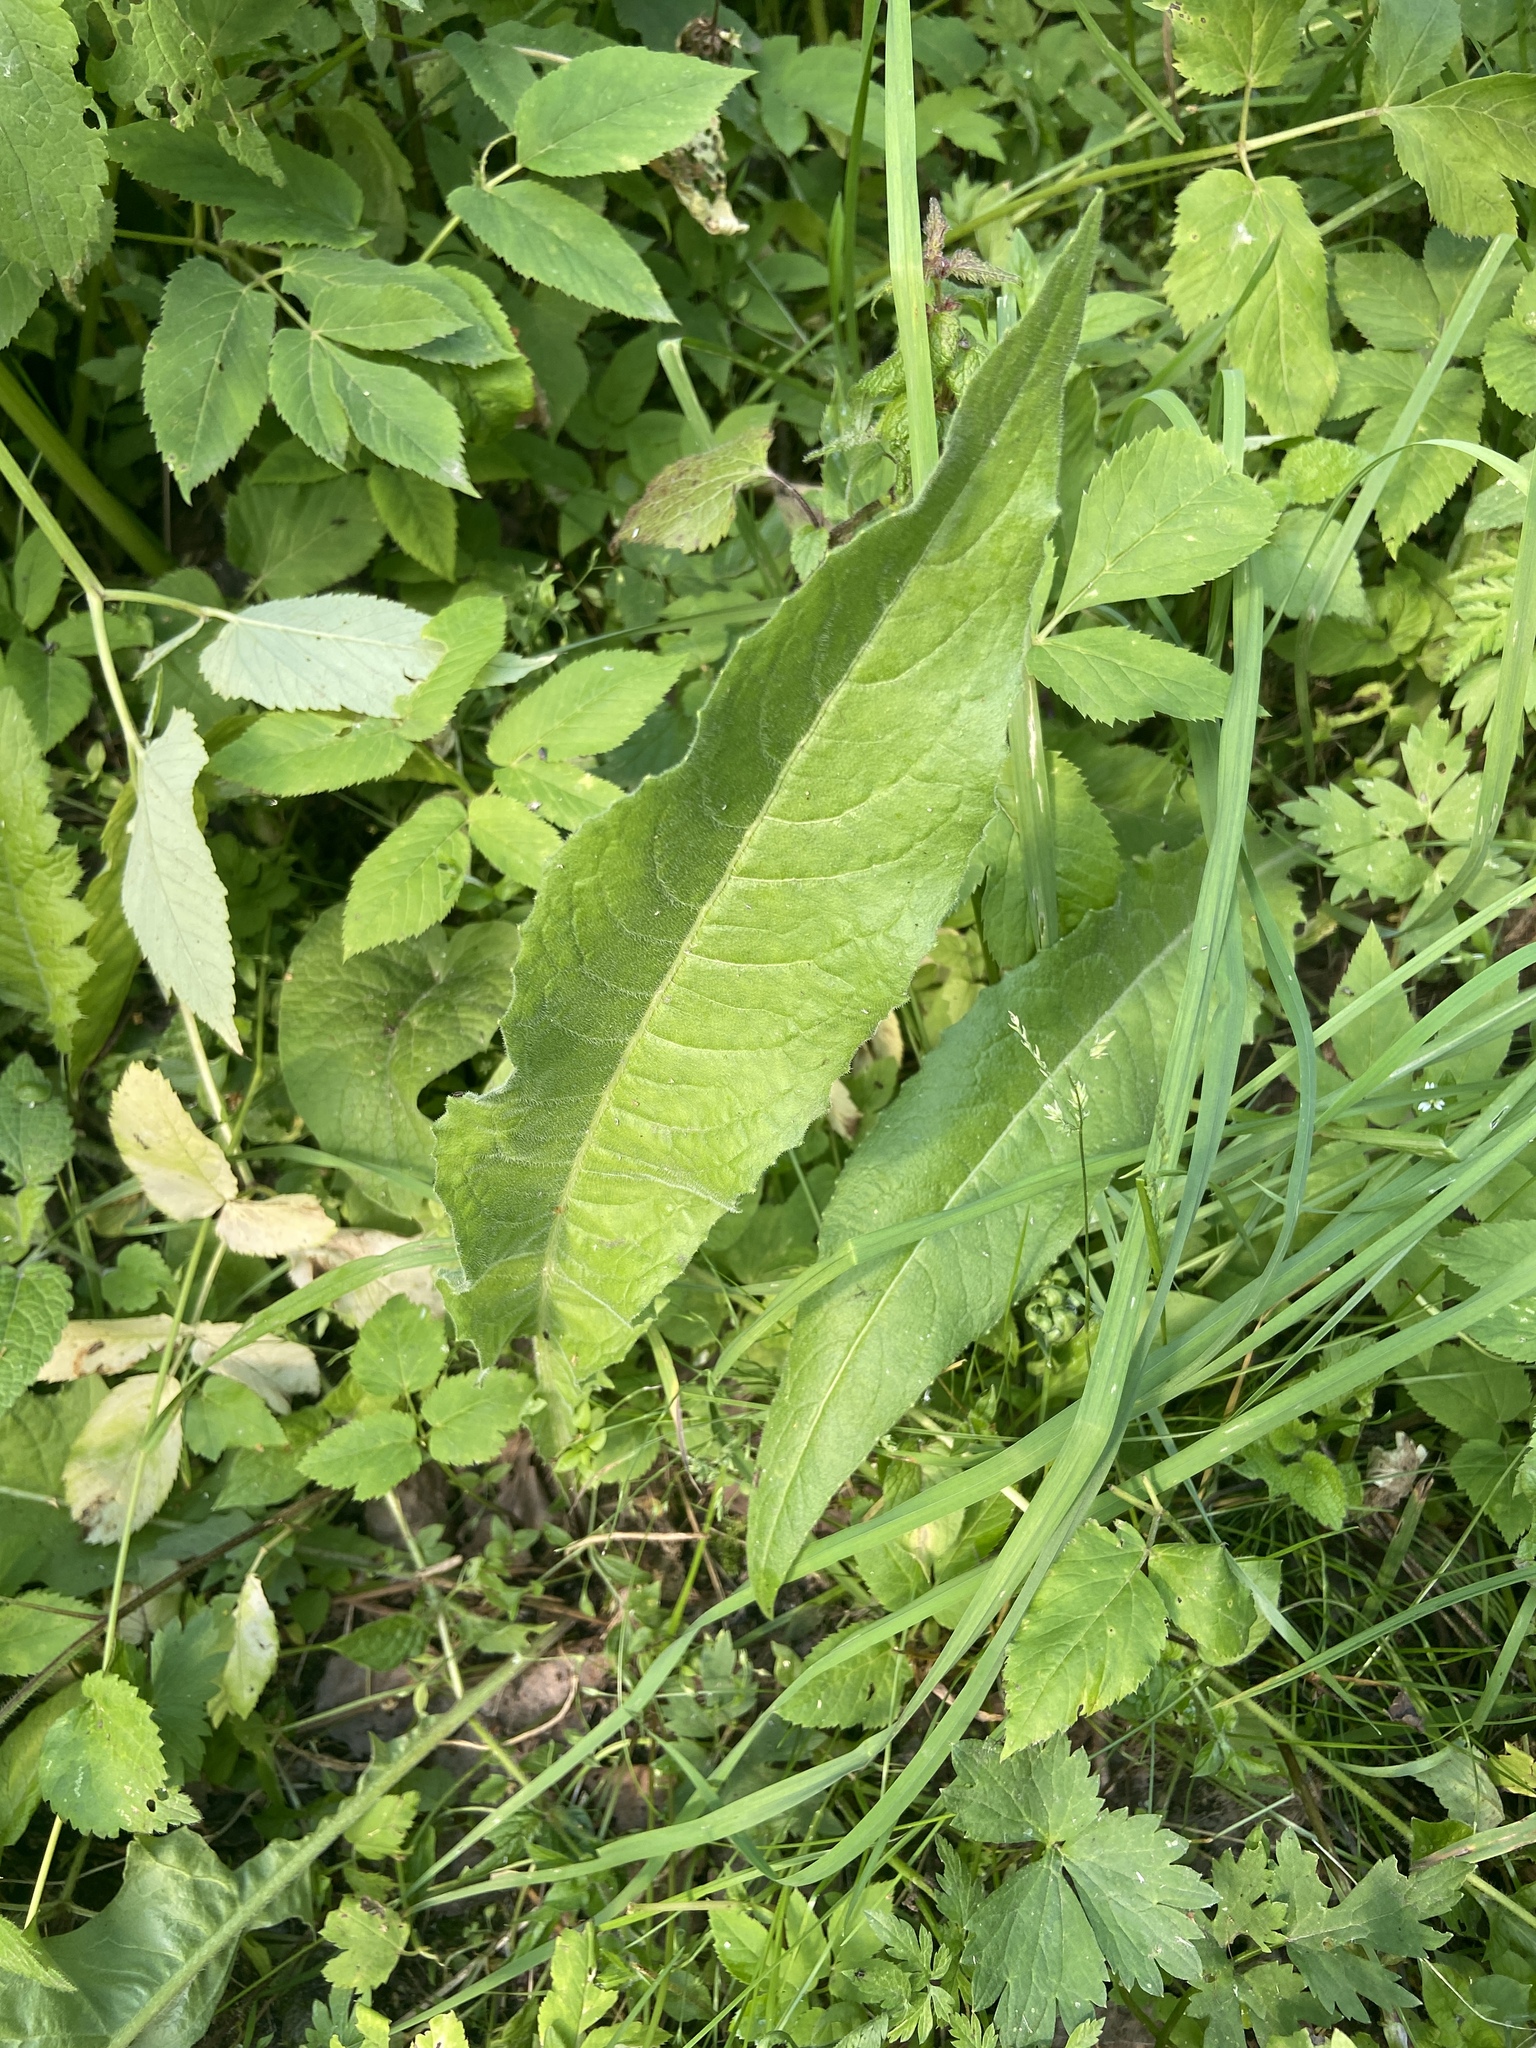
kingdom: Plantae
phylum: Tracheophyta
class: Magnoliopsida
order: Brassicales
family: Brassicaceae
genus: Bunias
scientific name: Bunias orientalis
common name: Warty-cabbage
